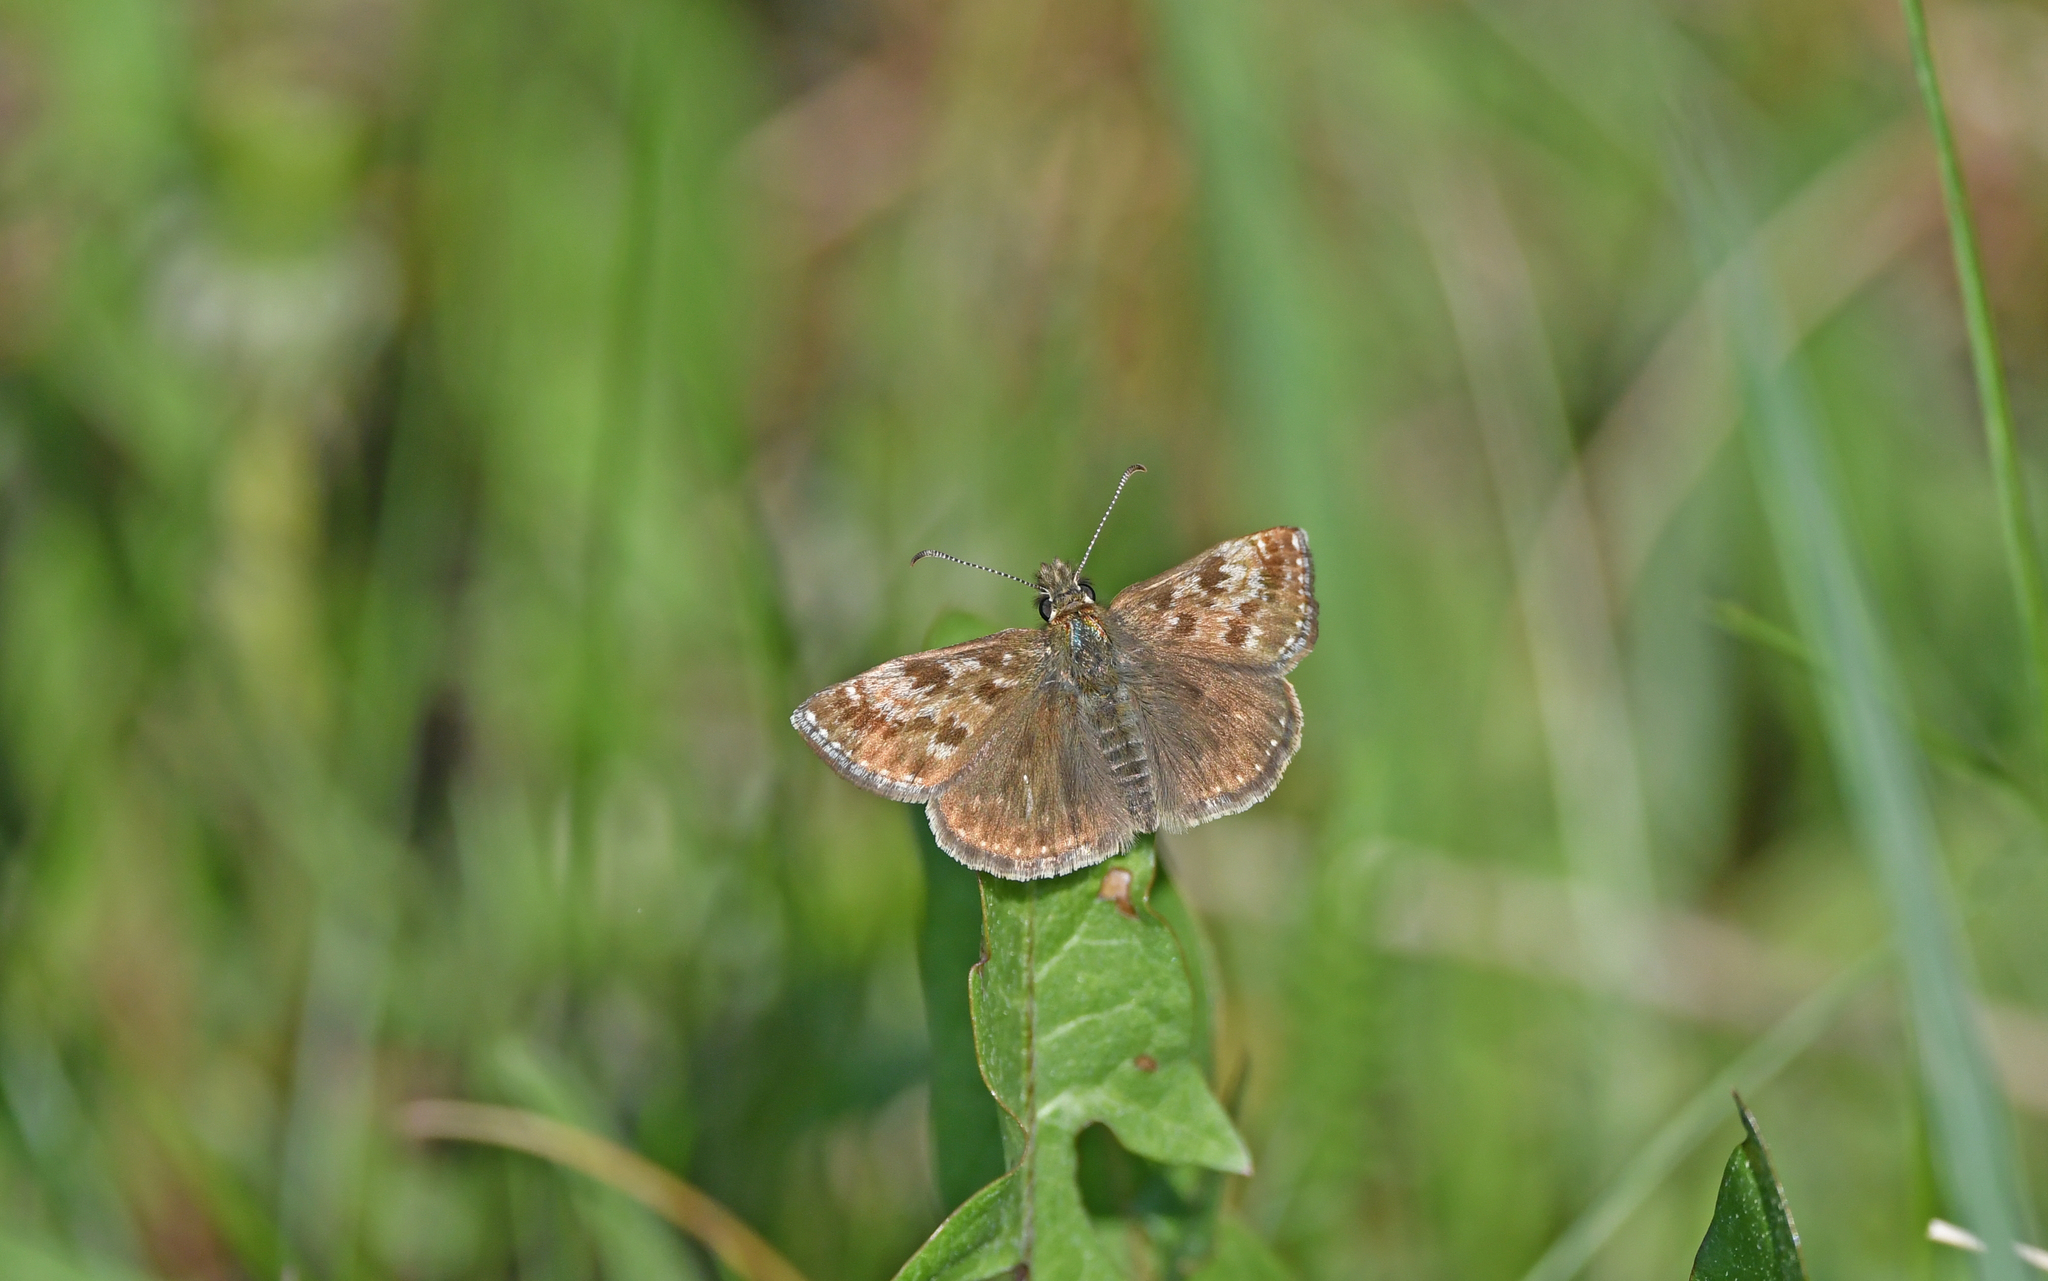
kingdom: Animalia
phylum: Arthropoda
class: Insecta
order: Lepidoptera
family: Hesperiidae
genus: Erynnis
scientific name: Erynnis tages
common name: Dingy skipper
